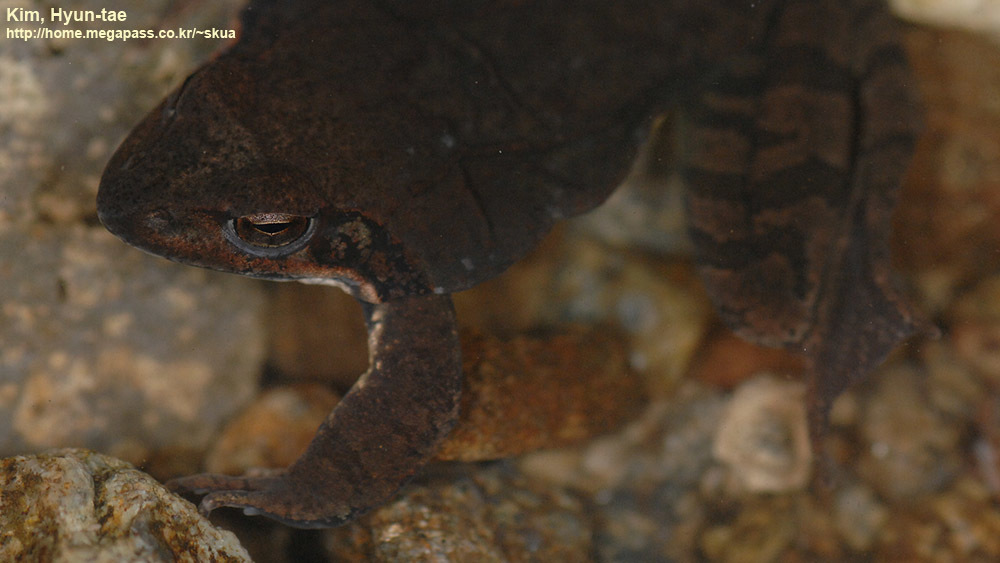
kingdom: Animalia
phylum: Chordata
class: Amphibia
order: Anura
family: Ranidae
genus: Rana
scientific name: Rana uenoi
